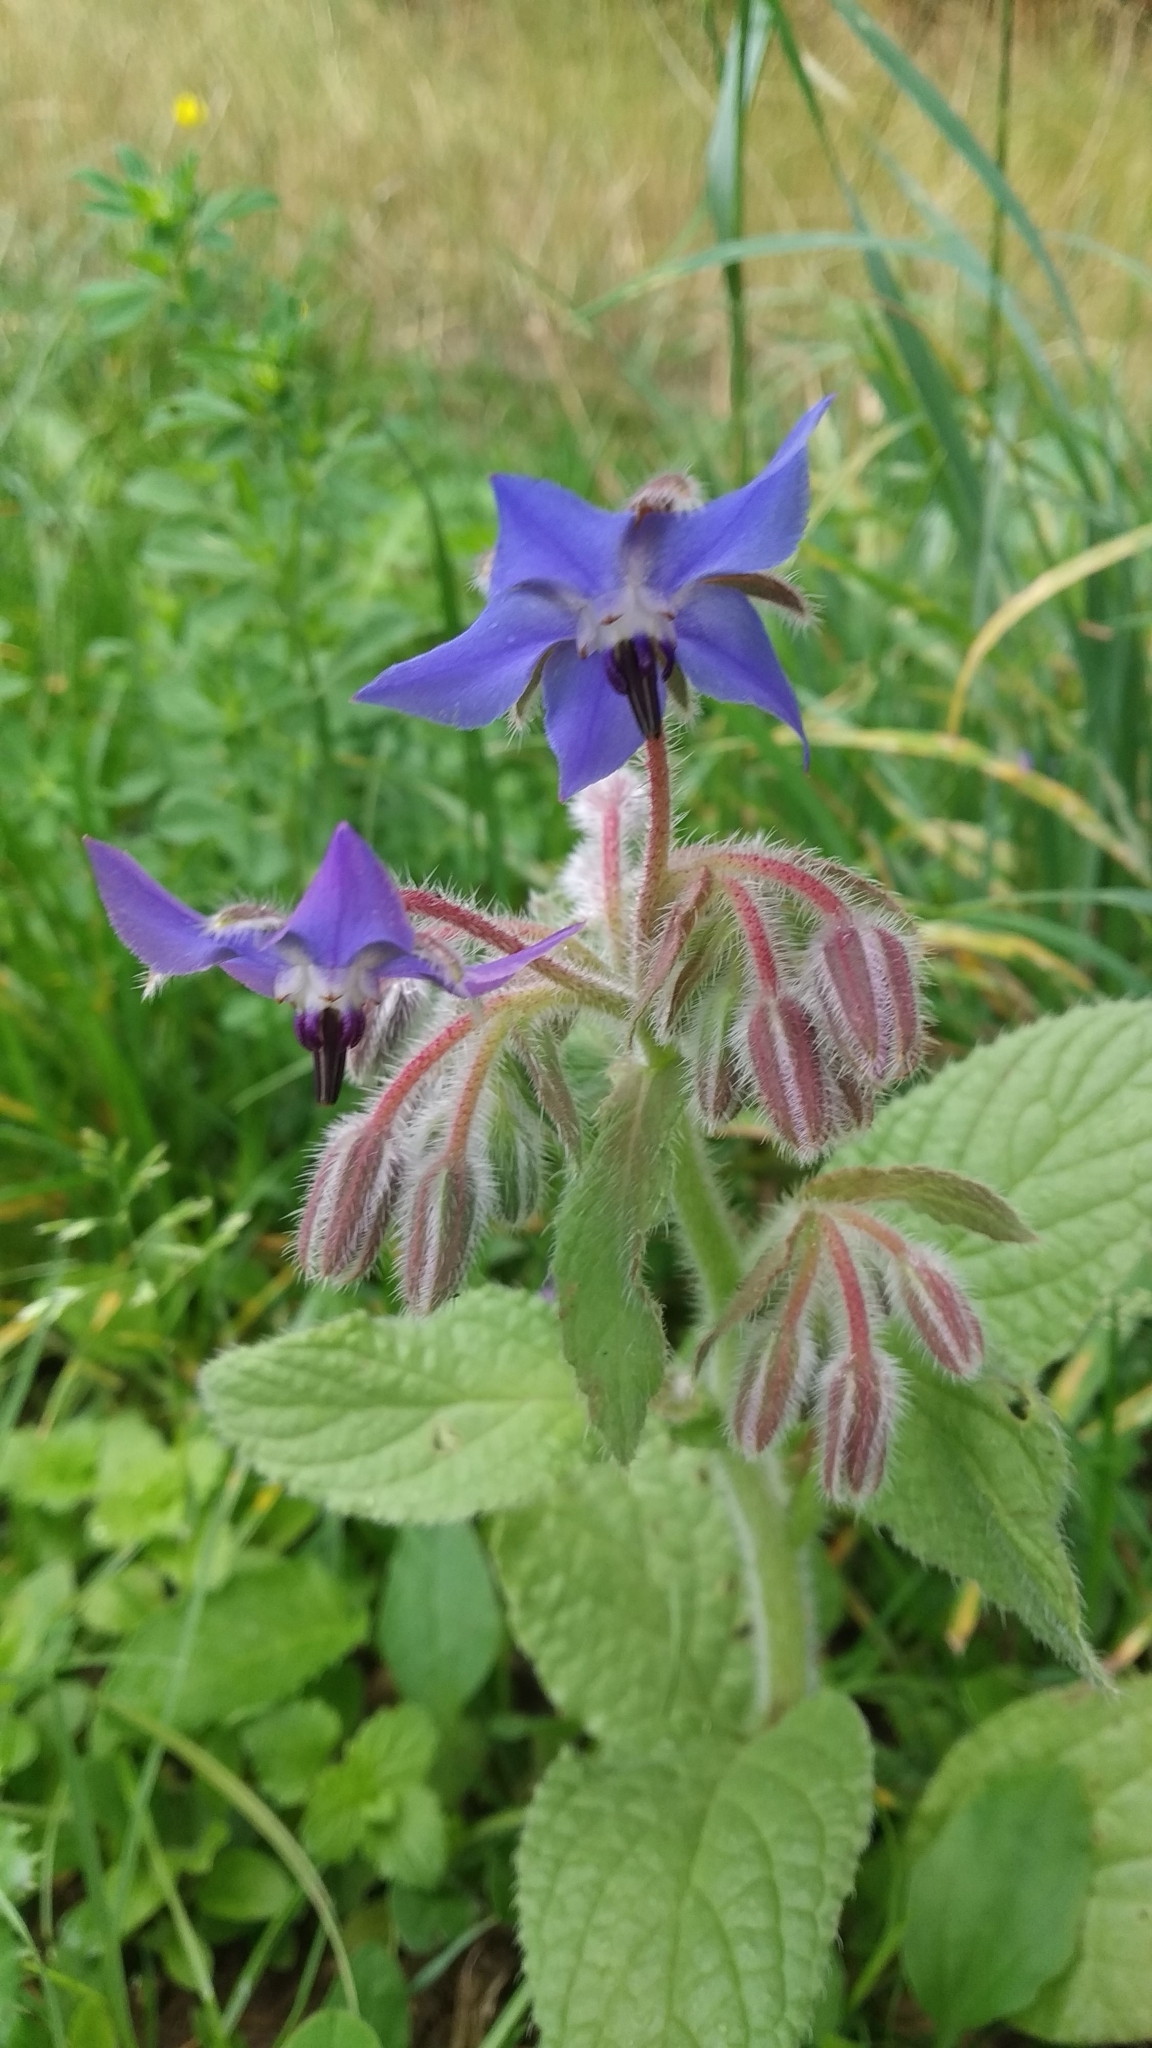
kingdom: Plantae
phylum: Tracheophyta
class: Magnoliopsida
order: Boraginales
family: Boraginaceae
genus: Borago
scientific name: Borago officinalis
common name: Borage
